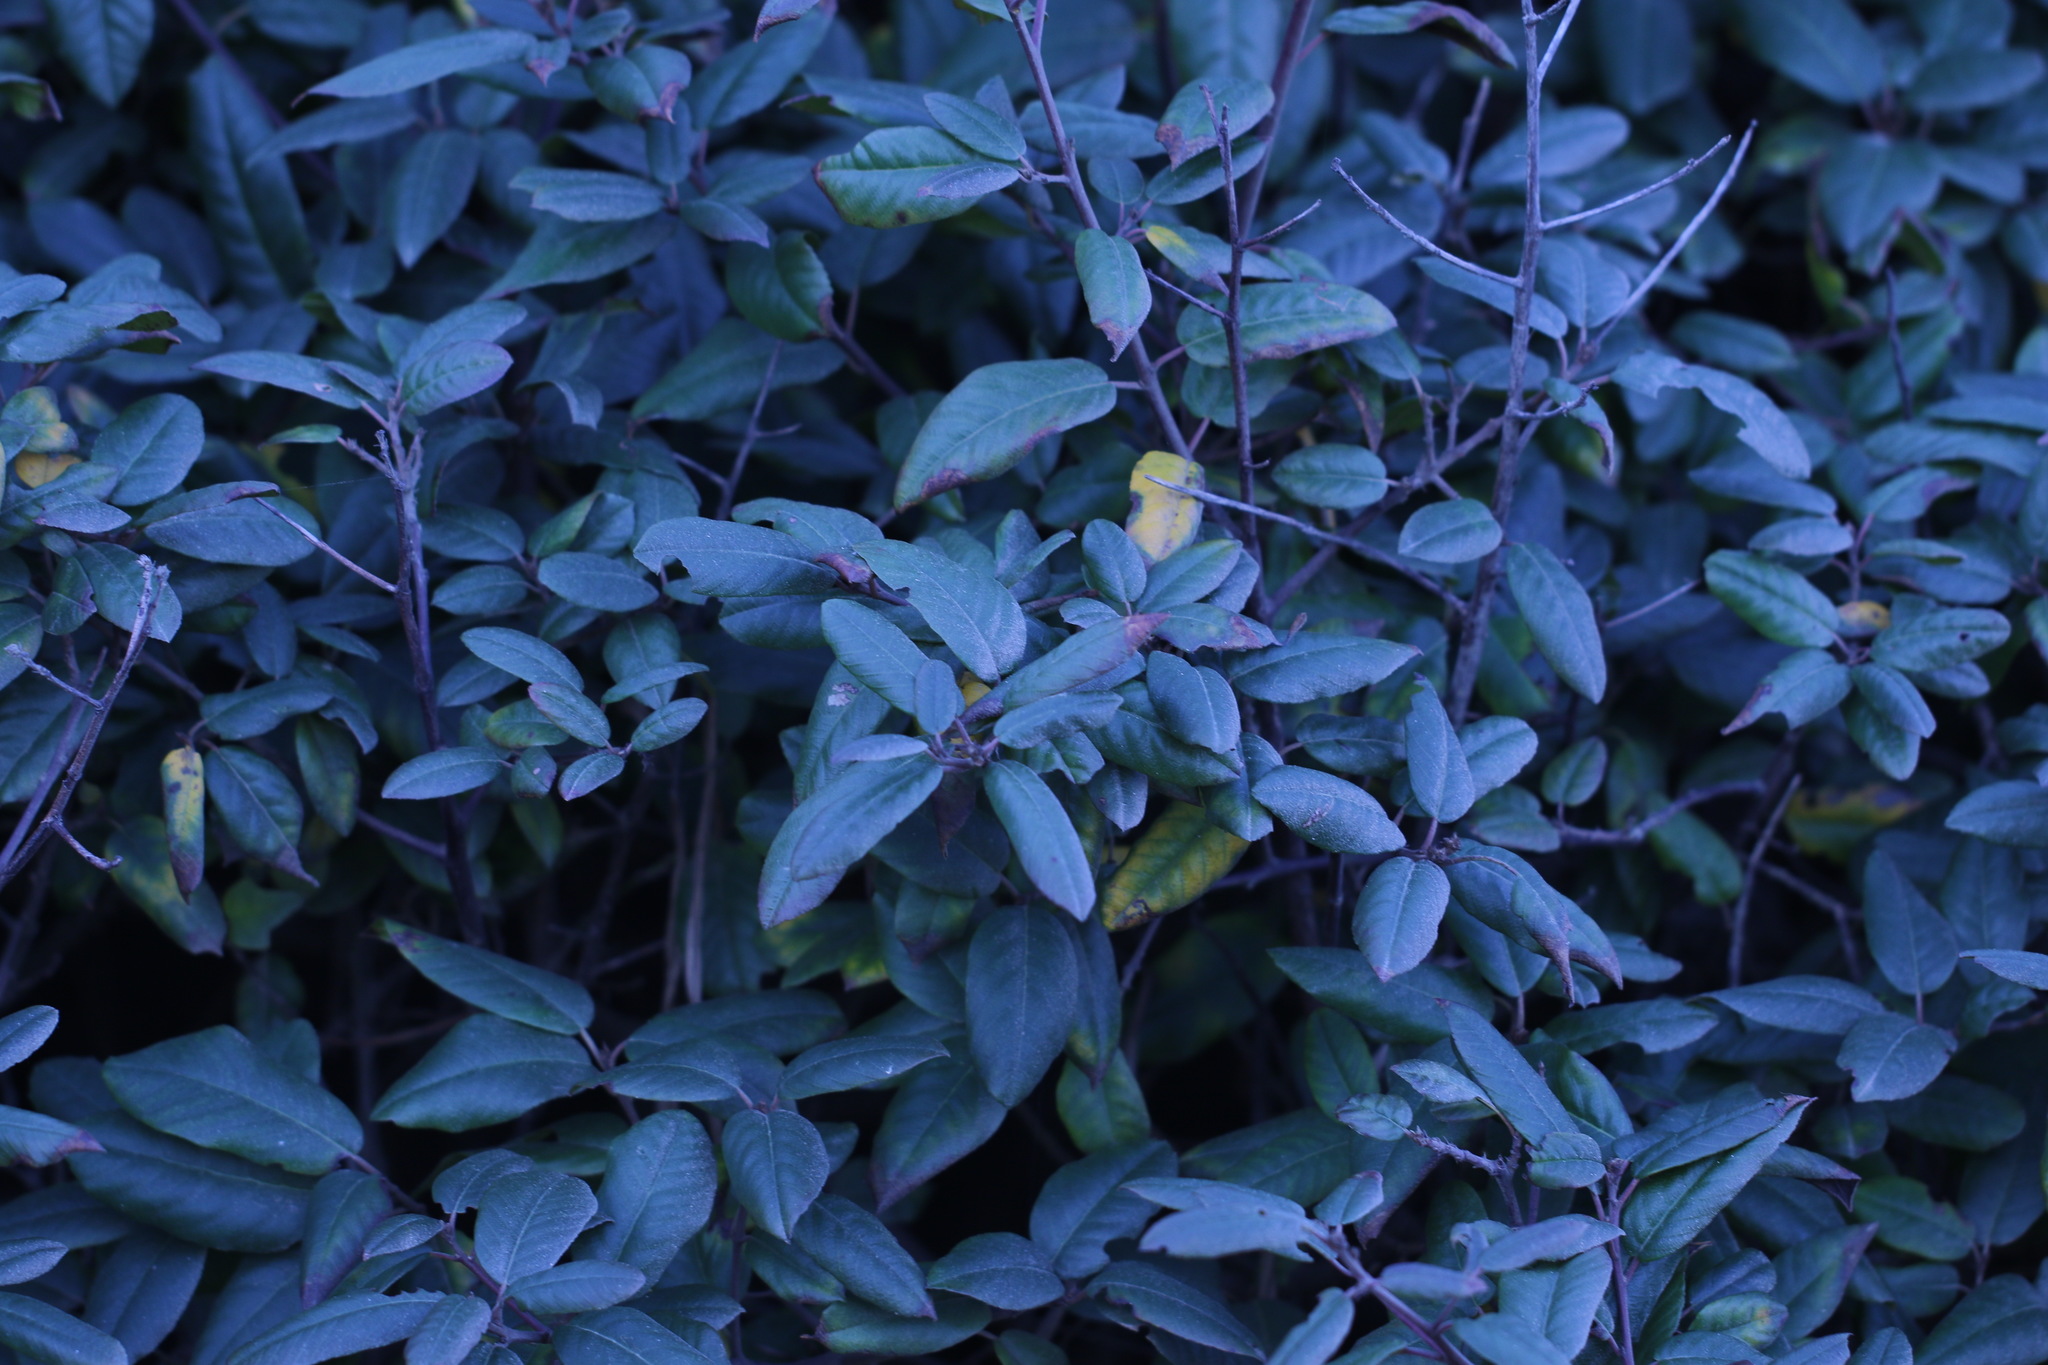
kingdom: Plantae
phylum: Tracheophyta
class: Magnoliopsida
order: Rosales
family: Rhamnaceae
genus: Frangula
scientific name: Frangula californica
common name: California buckthorn
